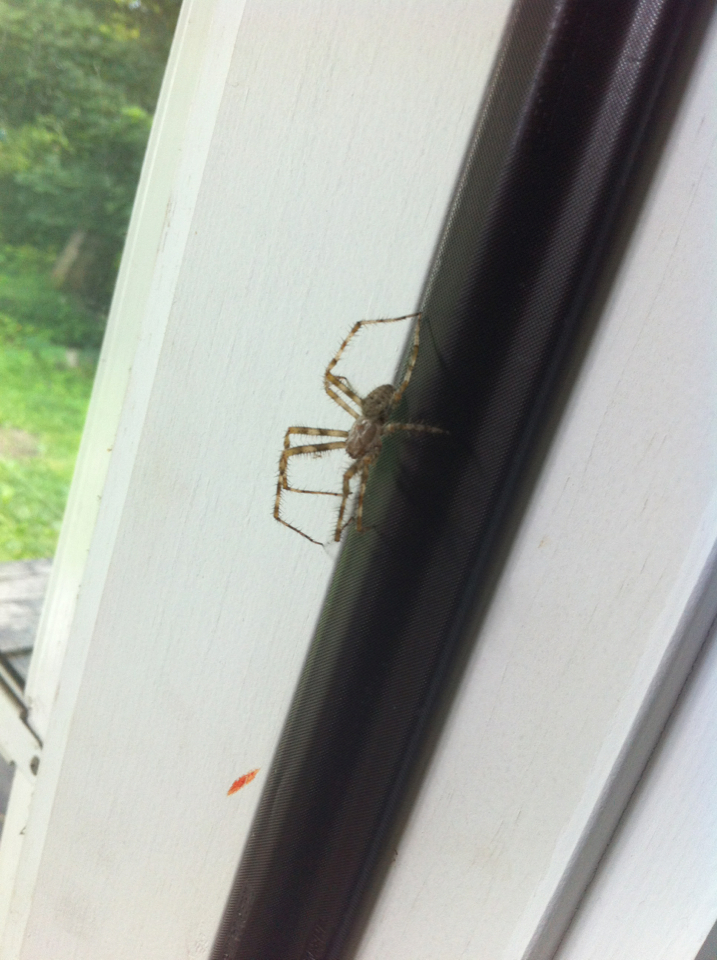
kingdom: Animalia
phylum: Arthropoda
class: Arachnida
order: Araneae
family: Araneidae
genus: Araneus
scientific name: Araneus cavaticus
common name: Barn orbweaver
